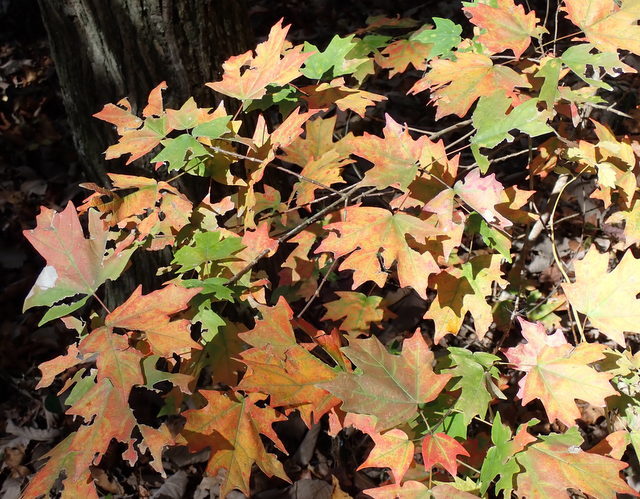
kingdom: Plantae
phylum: Tracheophyta
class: Magnoliopsida
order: Sapindales
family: Sapindaceae
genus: Acer
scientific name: Acer floridanum
